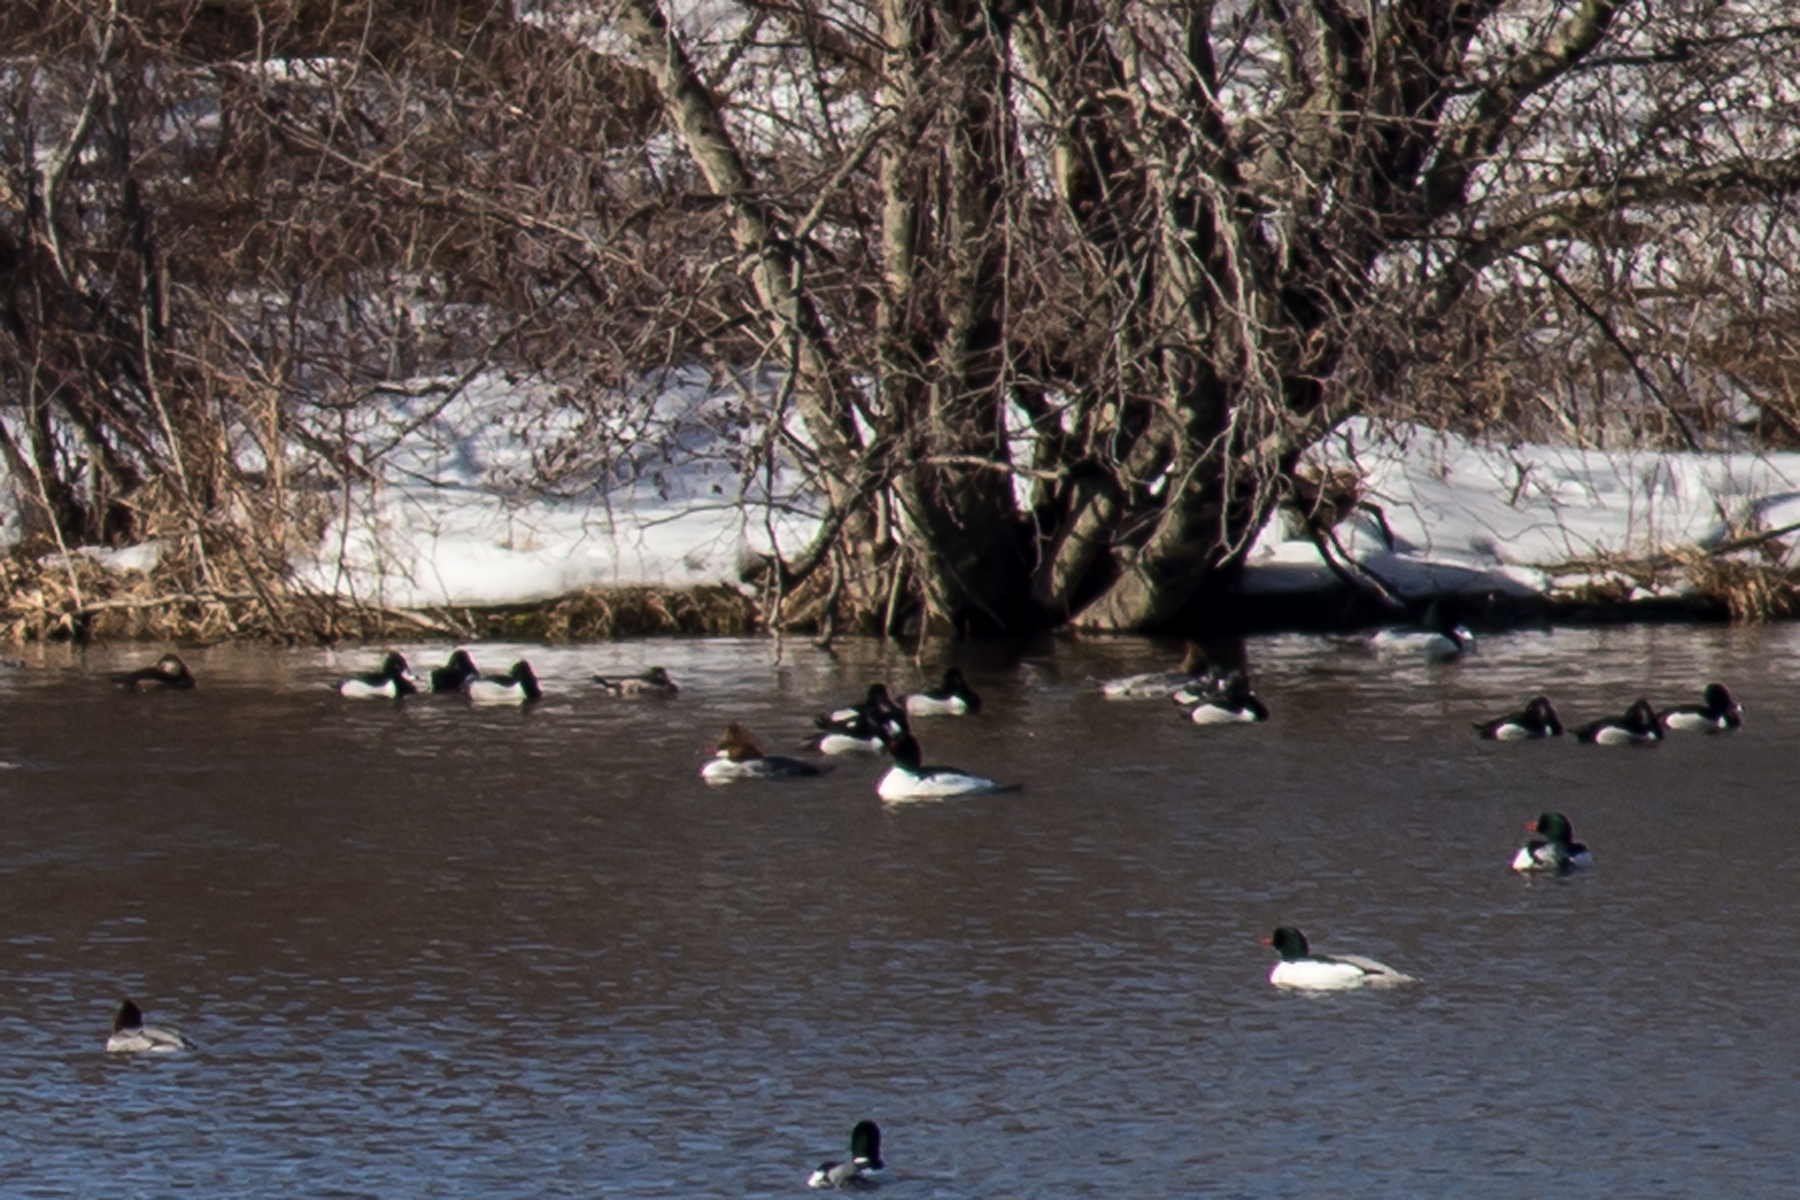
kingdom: Animalia
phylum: Chordata
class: Aves
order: Anseriformes
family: Anatidae
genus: Aythya
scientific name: Aythya collaris
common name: Ring-necked duck
